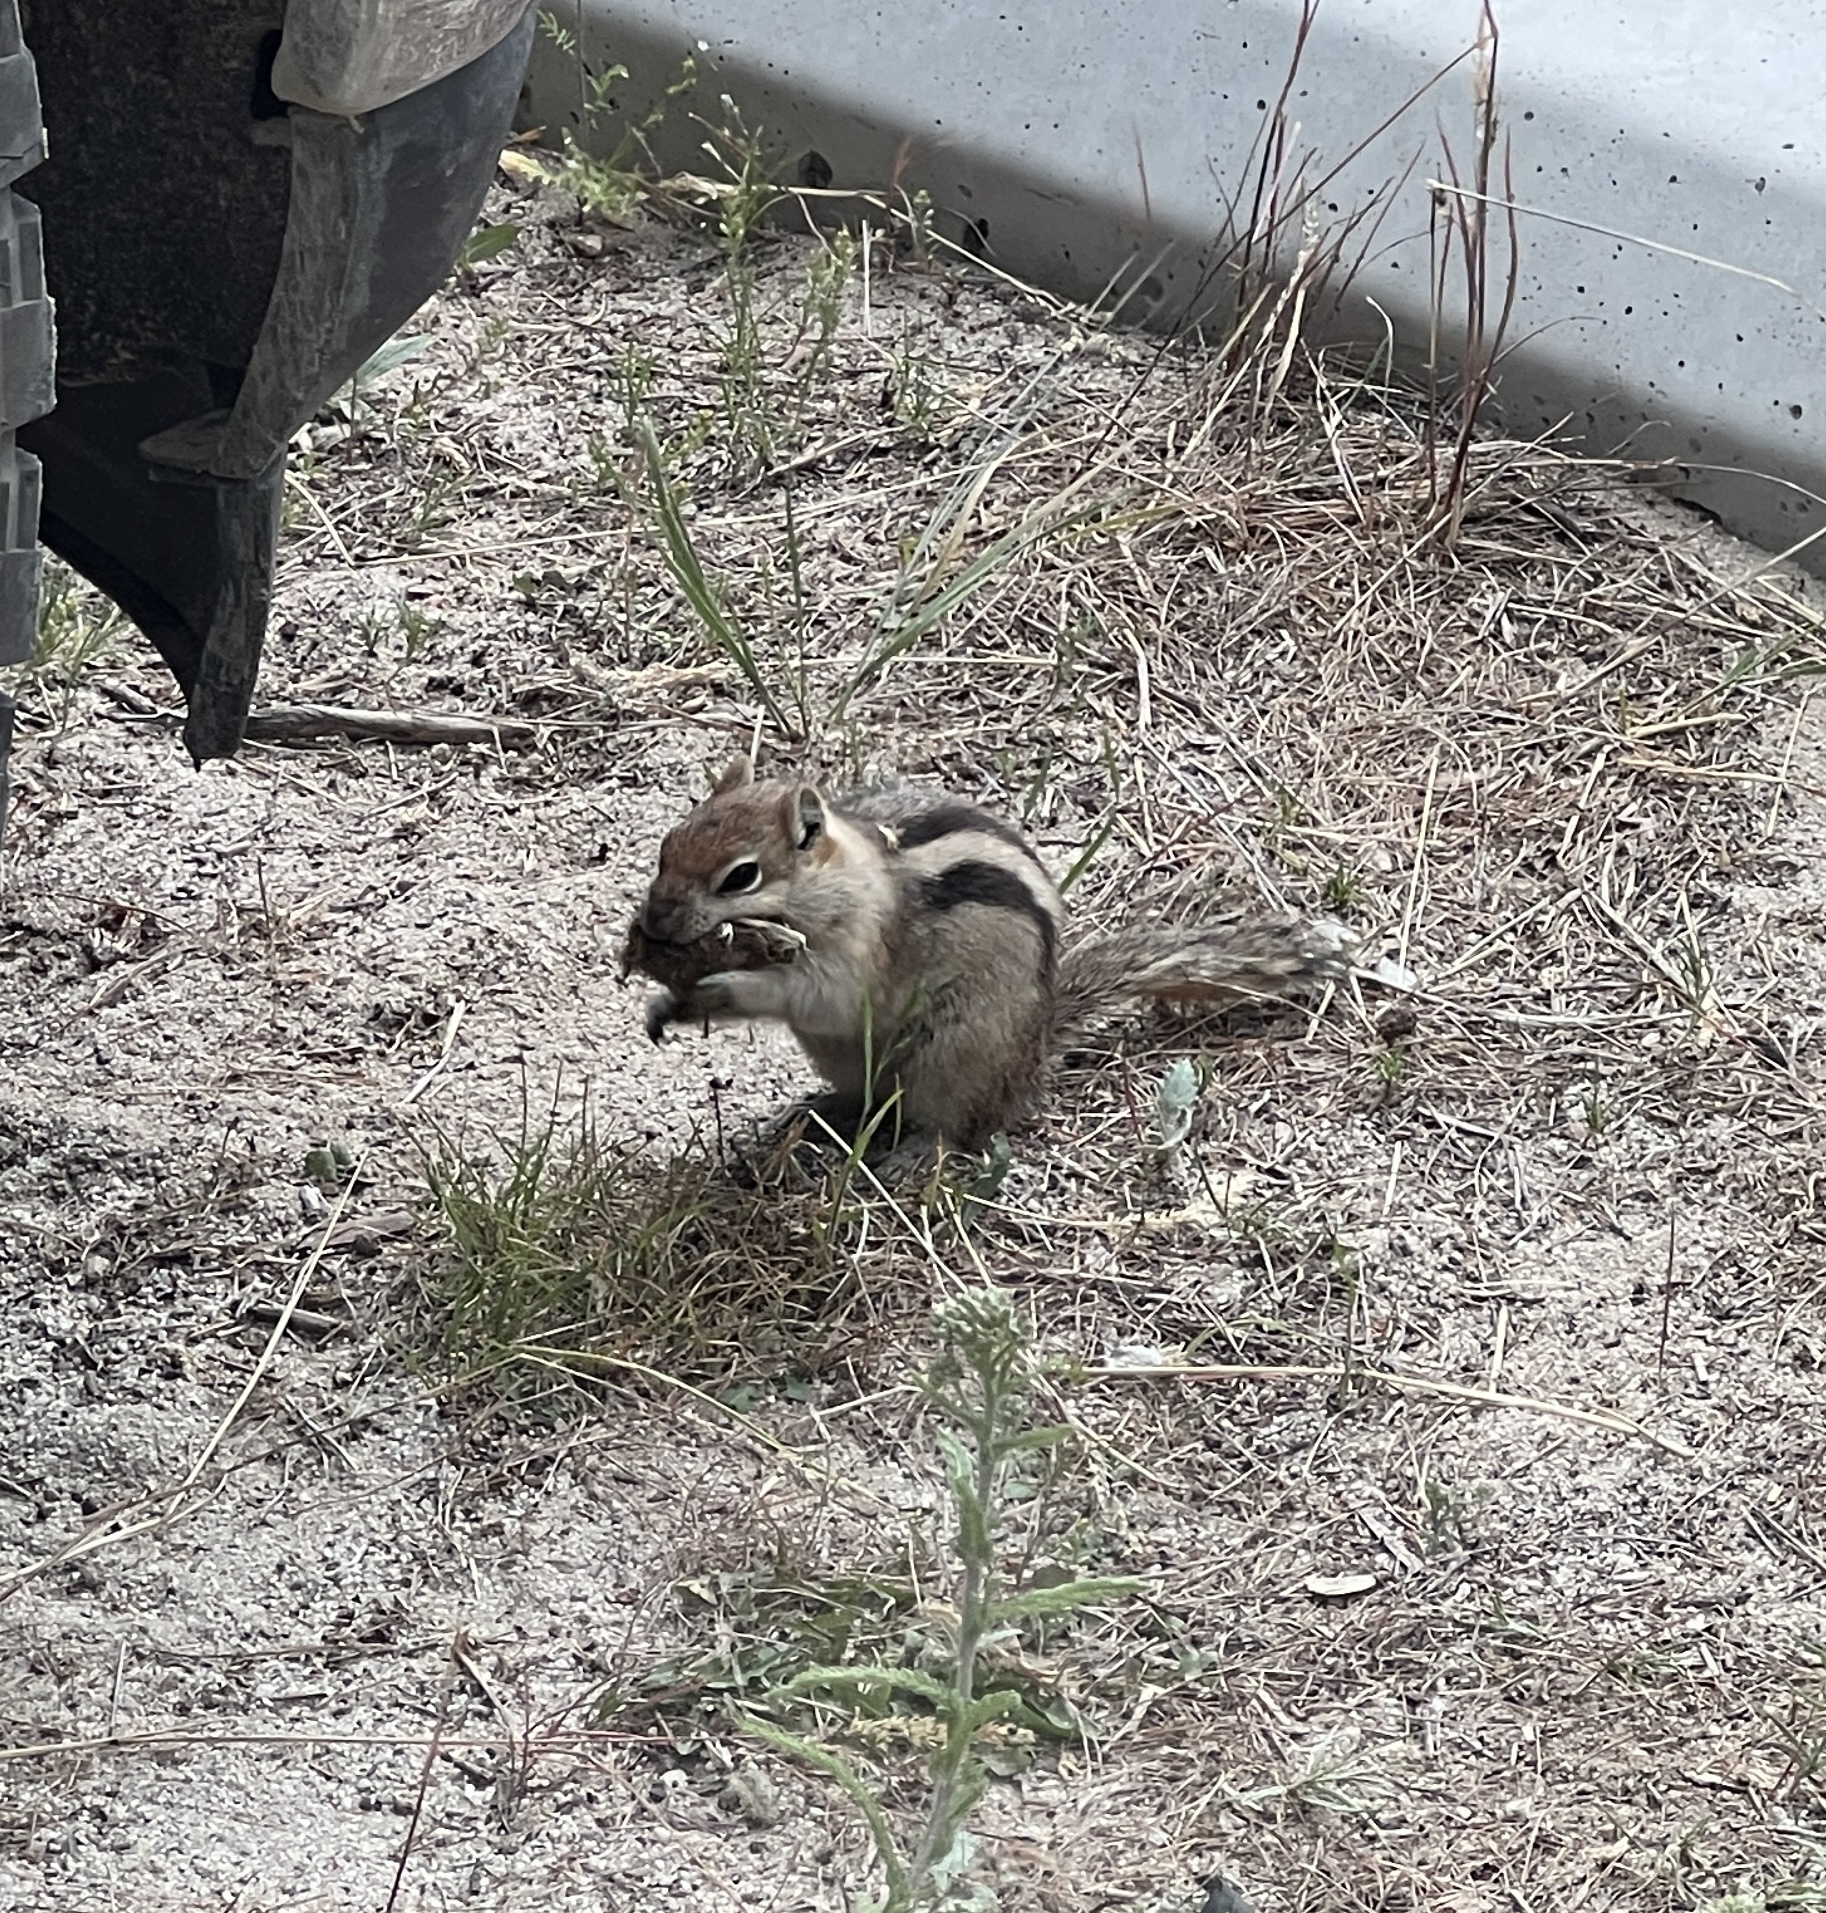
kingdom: Animalia
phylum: Chordata
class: Mammalia
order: Rodentia
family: Sciuridae
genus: Callospermophilus
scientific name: Callospermophilus lateralis
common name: Golden-mantled ground squirrel
